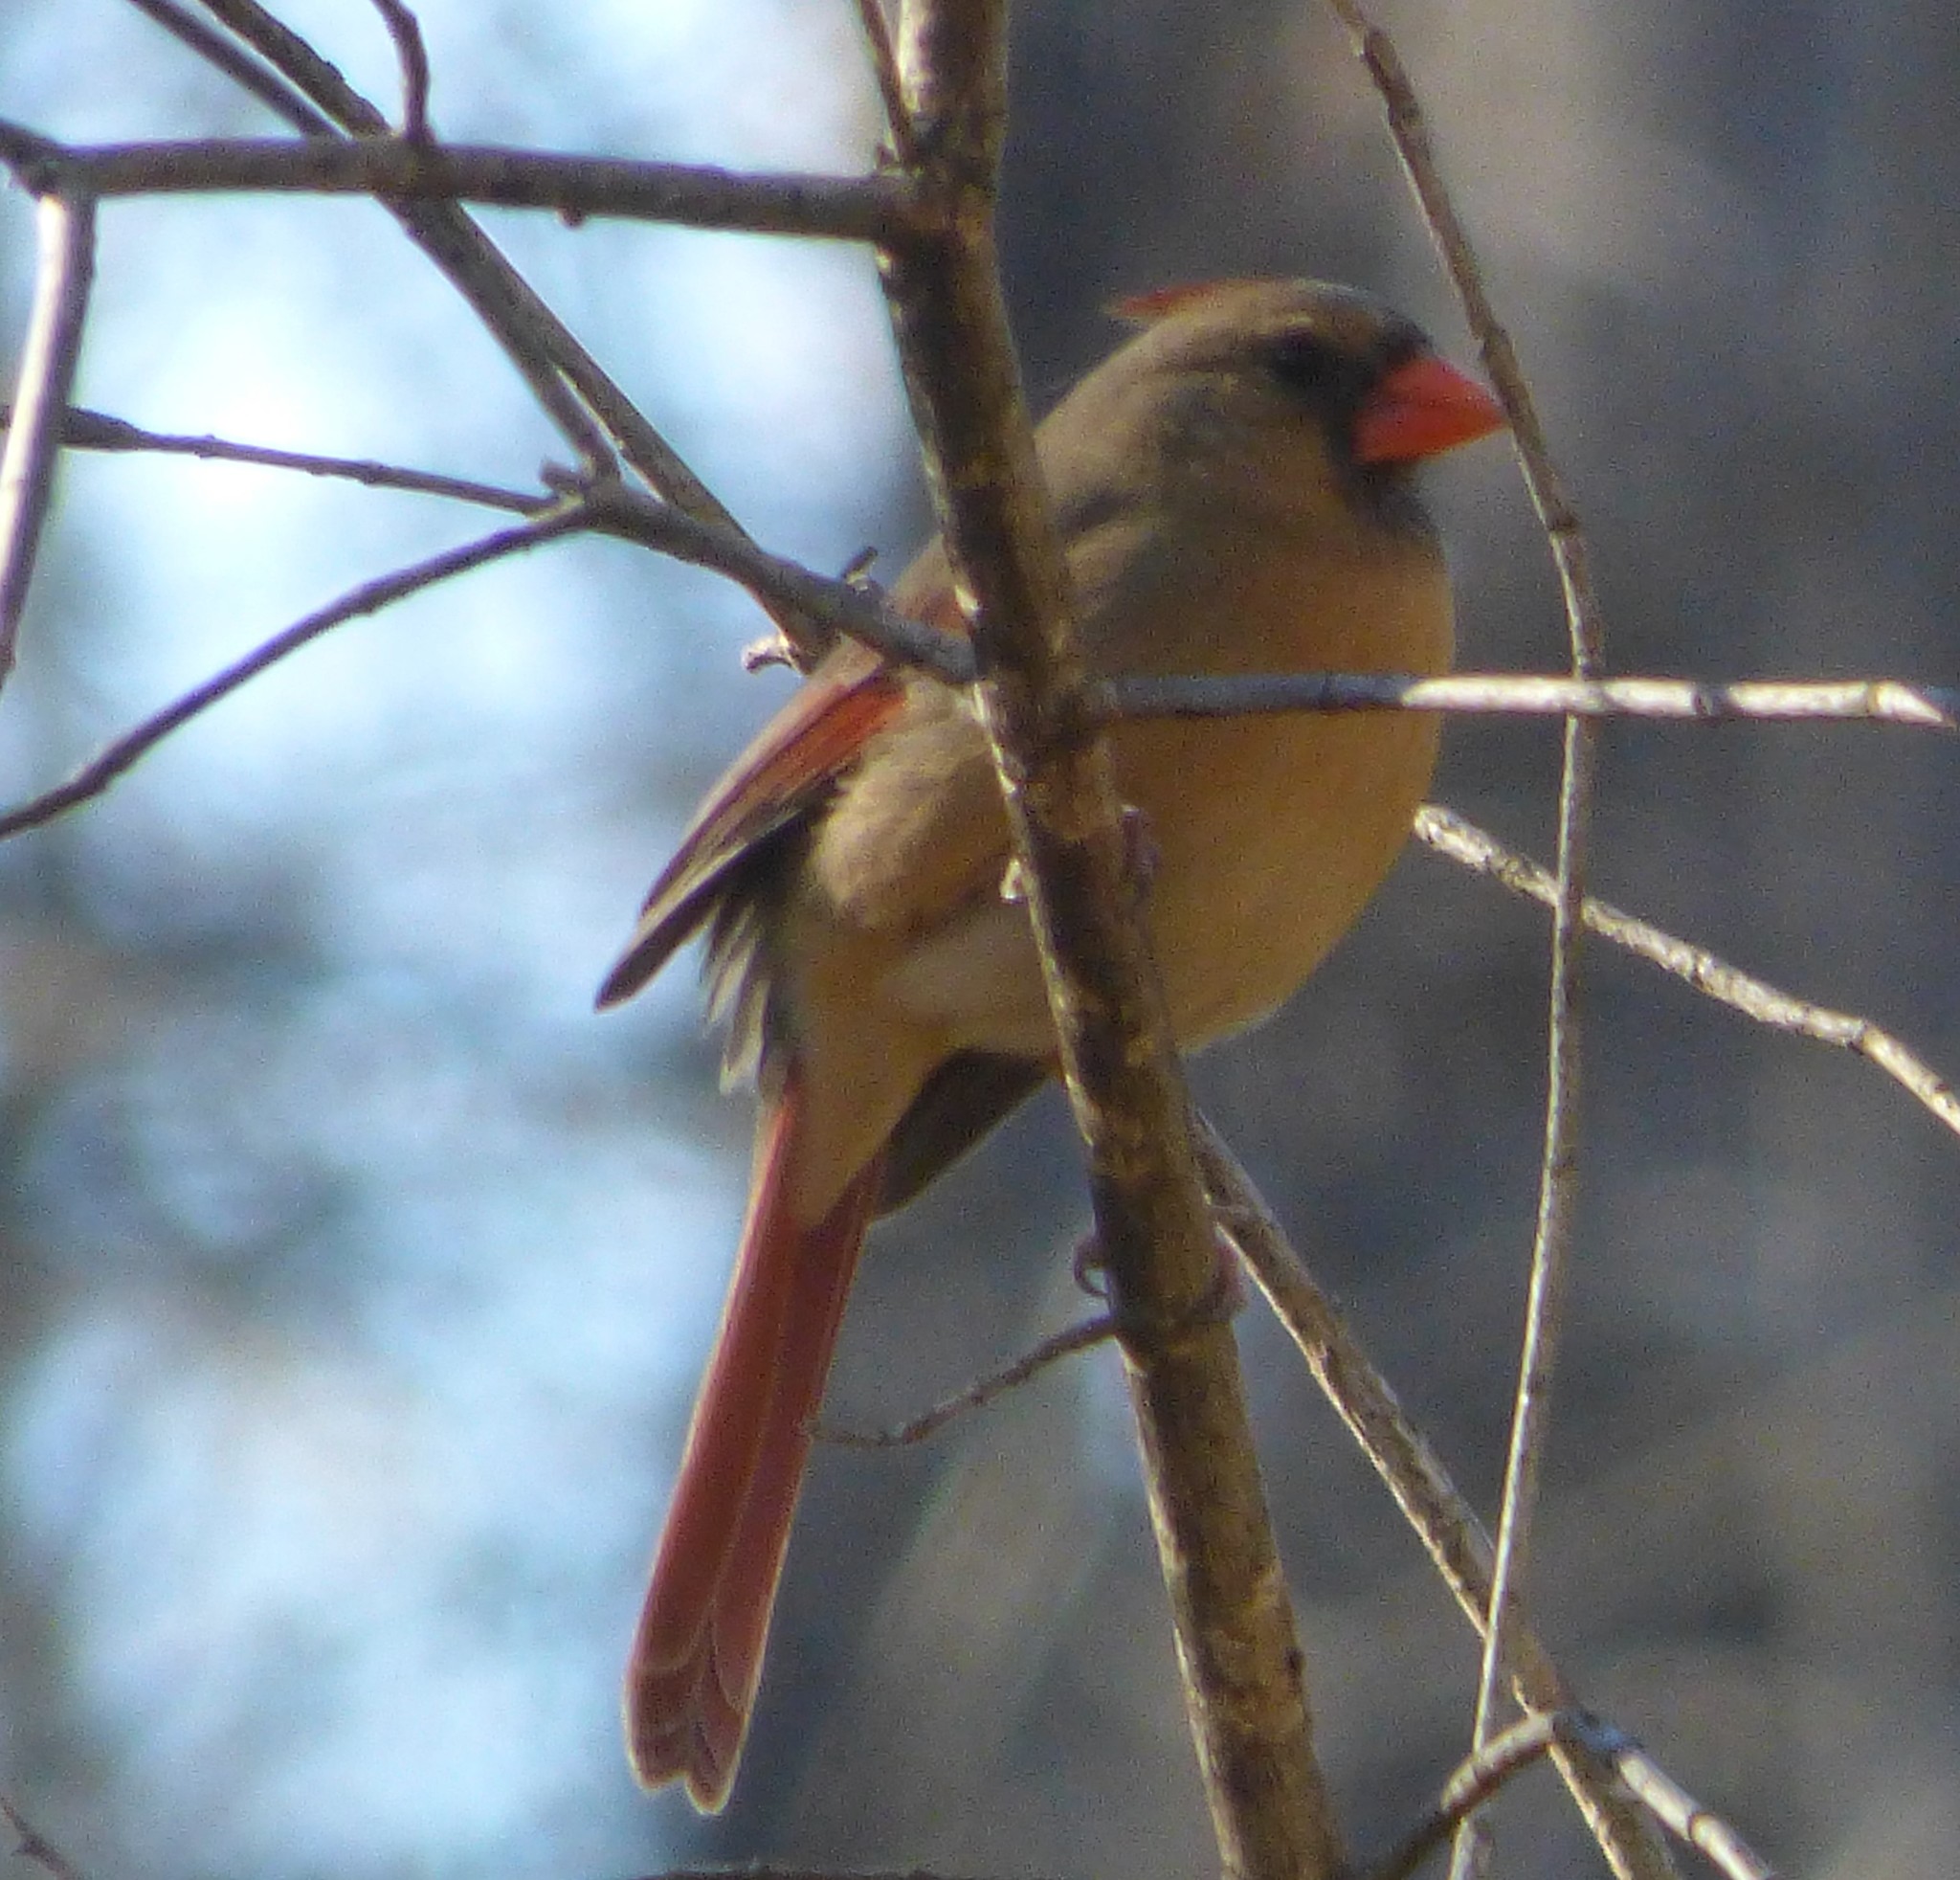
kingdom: Animalia
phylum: Chordata
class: Aves
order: Passeriformes
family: Cardinalidae
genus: Cardinalis
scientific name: Cardinalis cardinalis
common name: Northern cardinal
